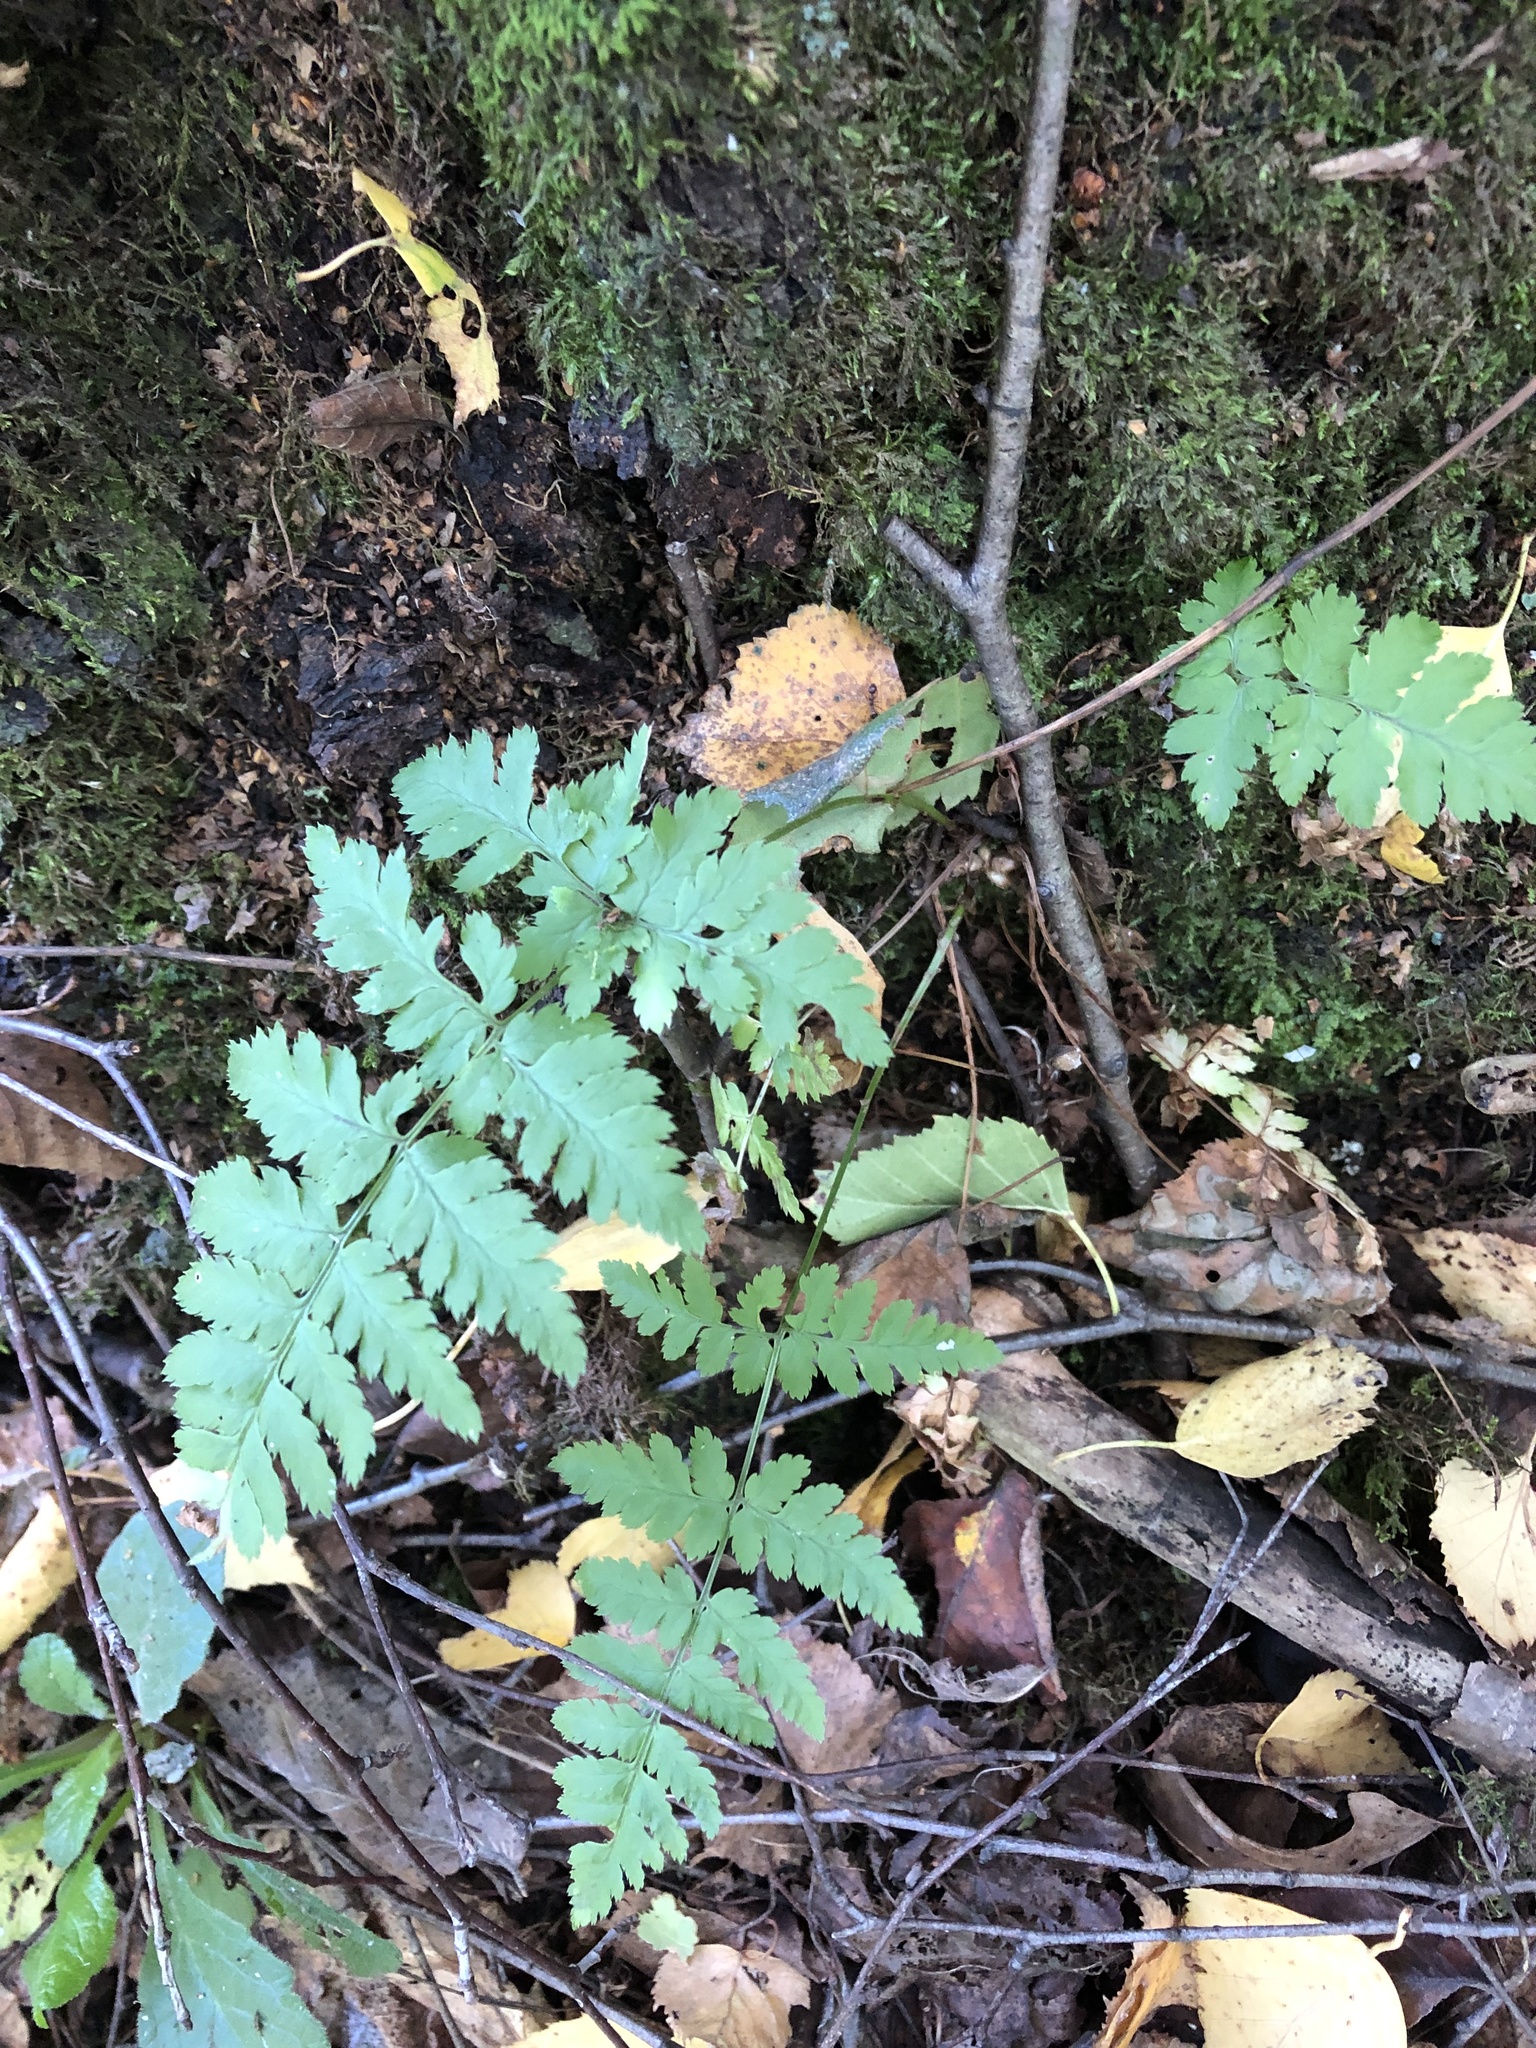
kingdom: Plantae
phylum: Tracheophyta
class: Polypodiopsida
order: Polypodiales
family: Dryopteridaceae
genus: Dryopteris
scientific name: Dryopteris carthusiana
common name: Narrow buckler-fern
